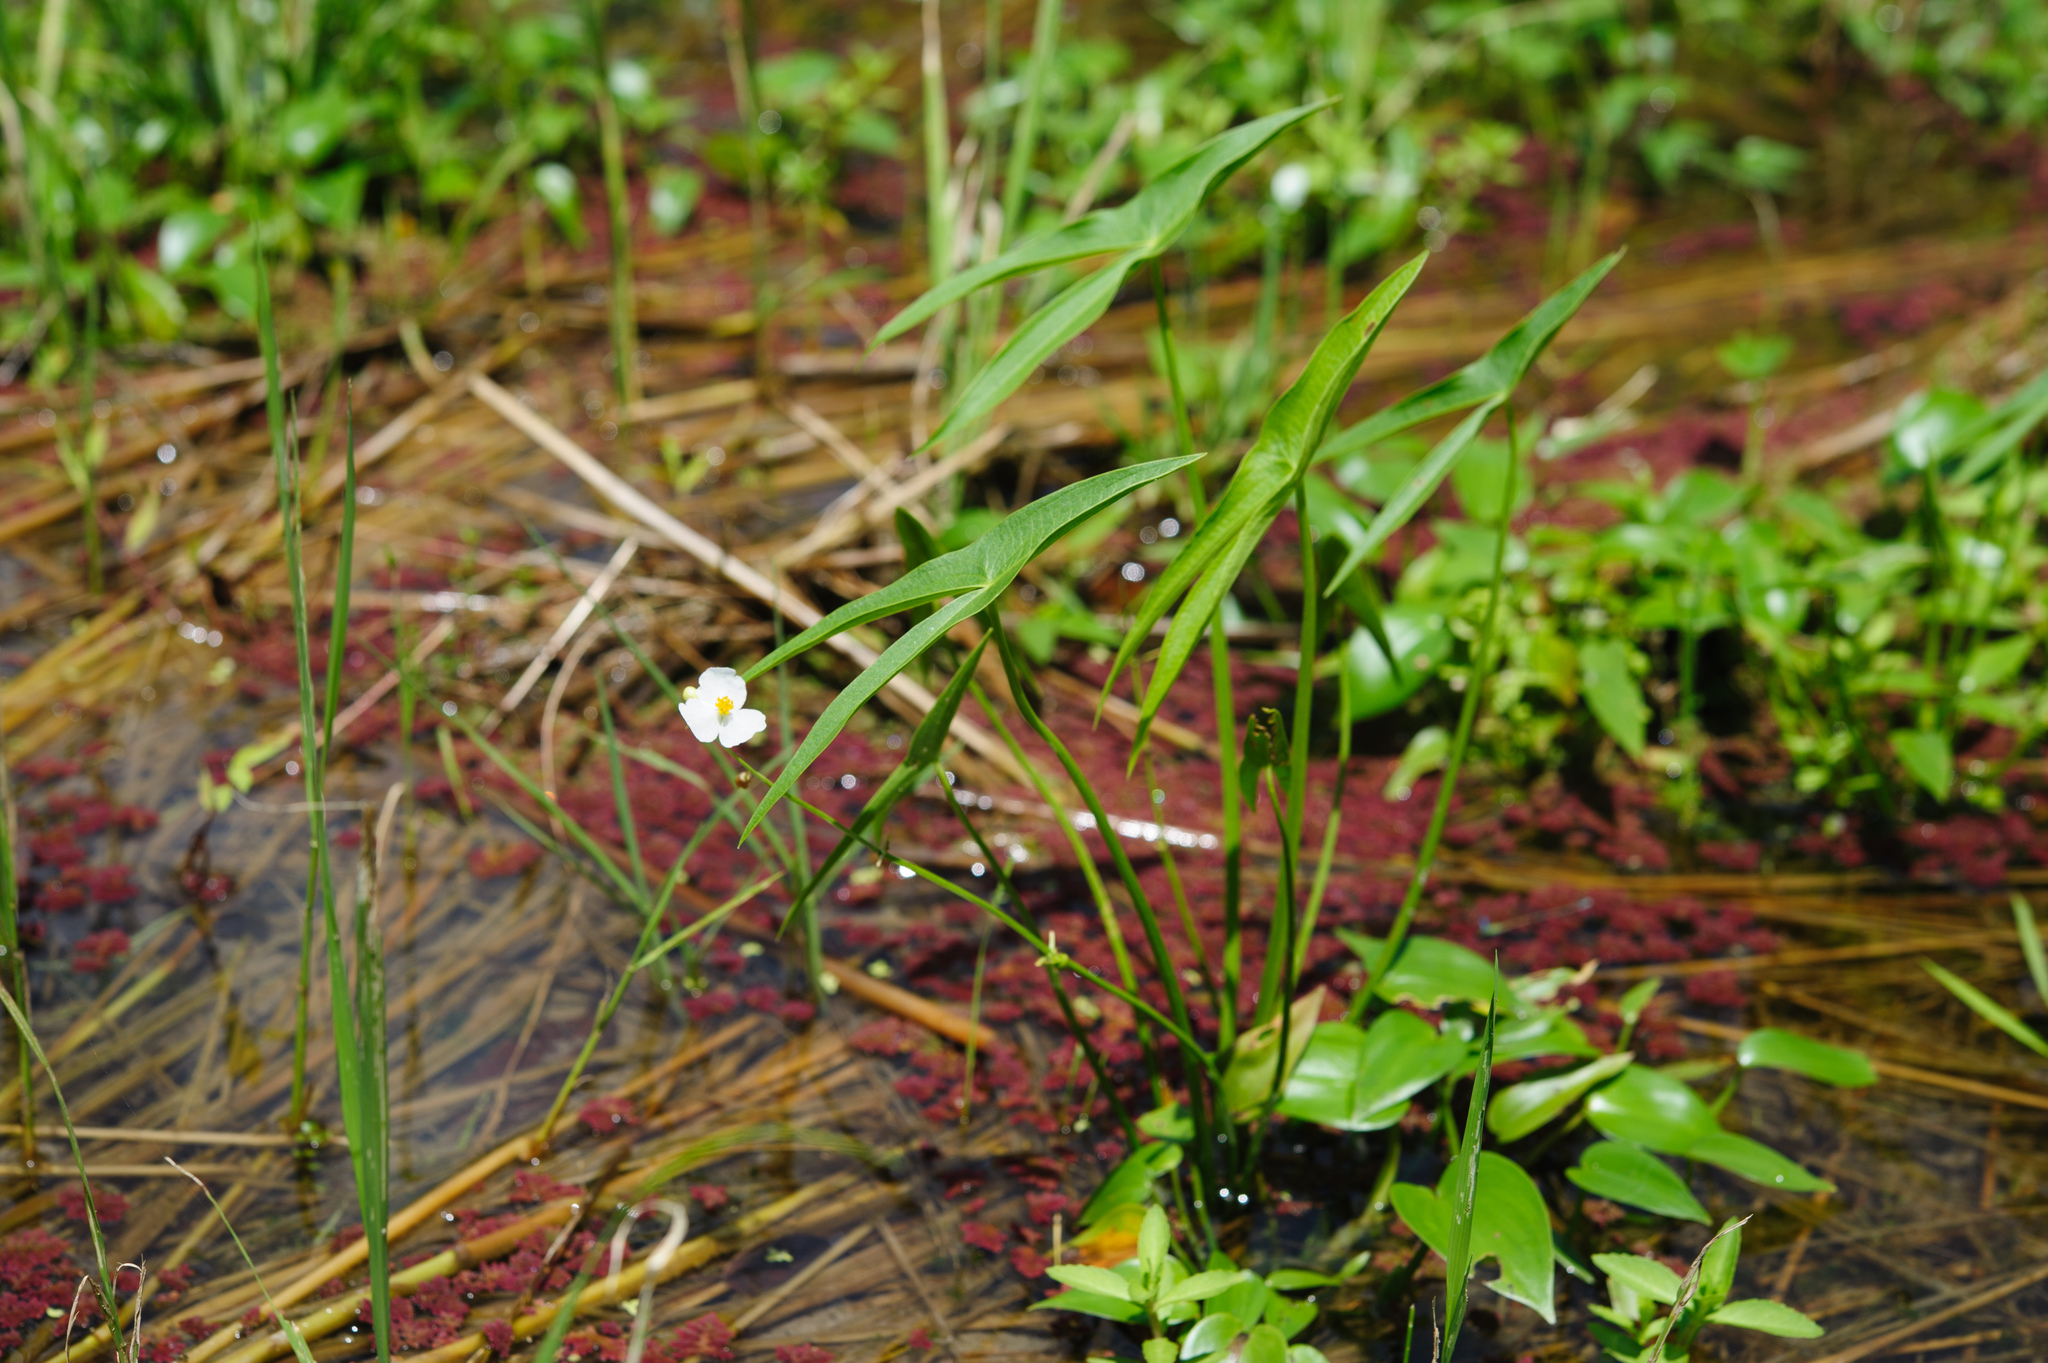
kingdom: Plantae
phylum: Tracheophyta
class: Liliopsida
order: Alismatales
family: Alismataceae
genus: Sagittaria
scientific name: Sagittaria trifolia
